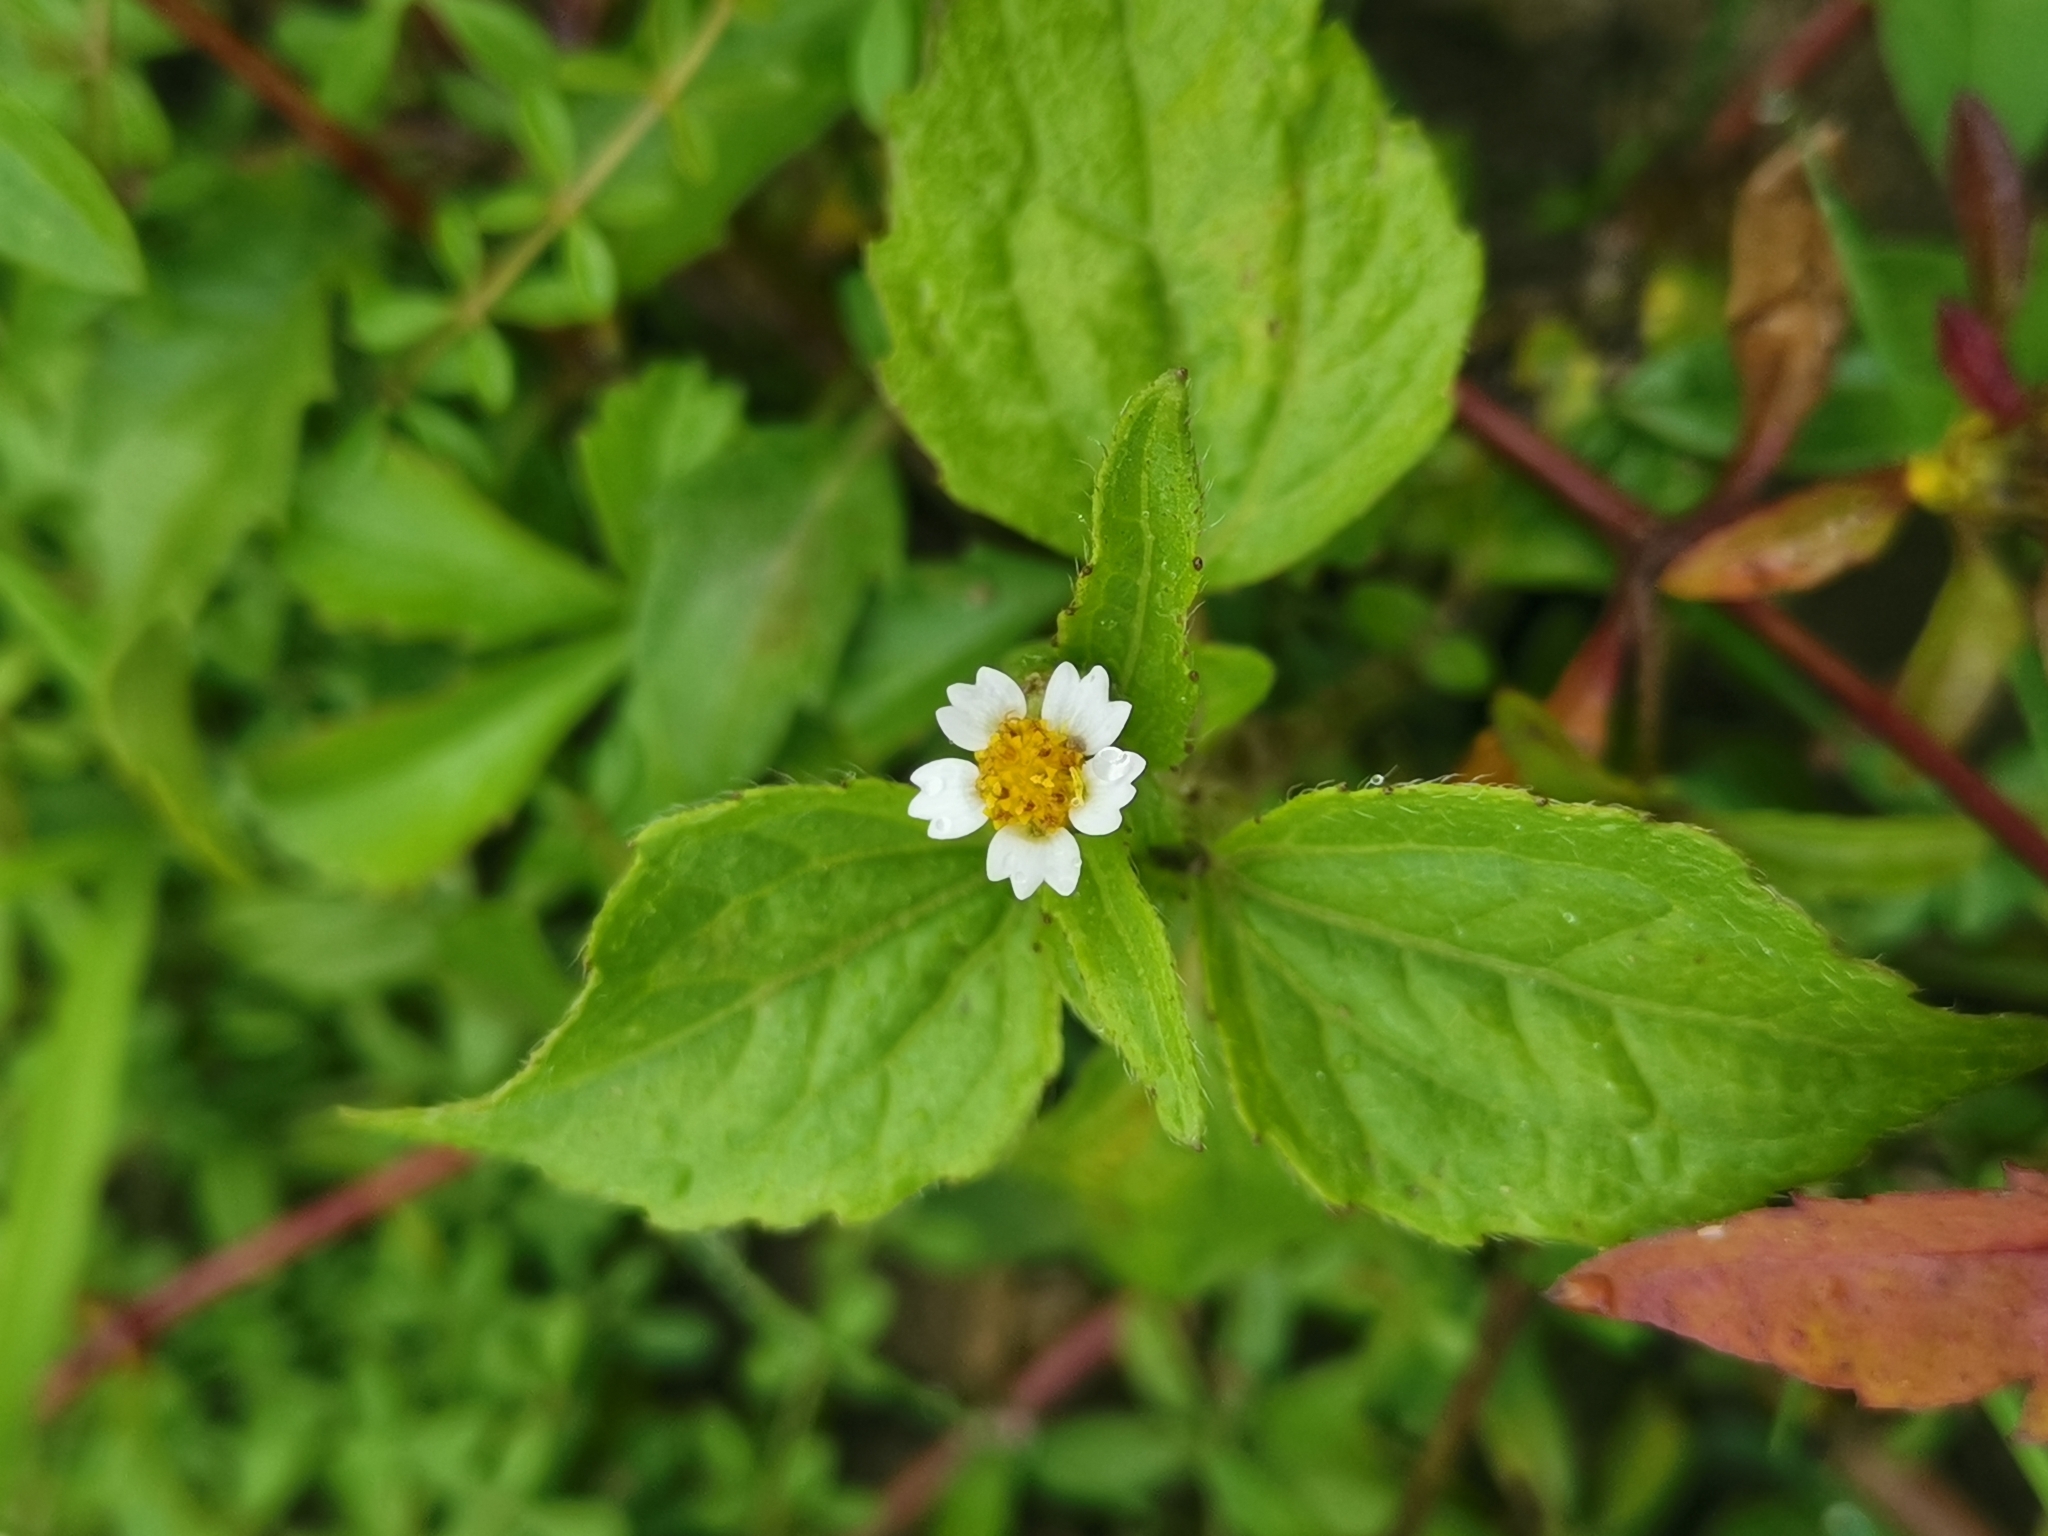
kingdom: Plantae
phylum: Tracheophyta
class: Magnoliopsida
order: Asterales
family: Asteraceae
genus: Galinsoga
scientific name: Galinsoga quadriradiata
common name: Shaggy soldier
